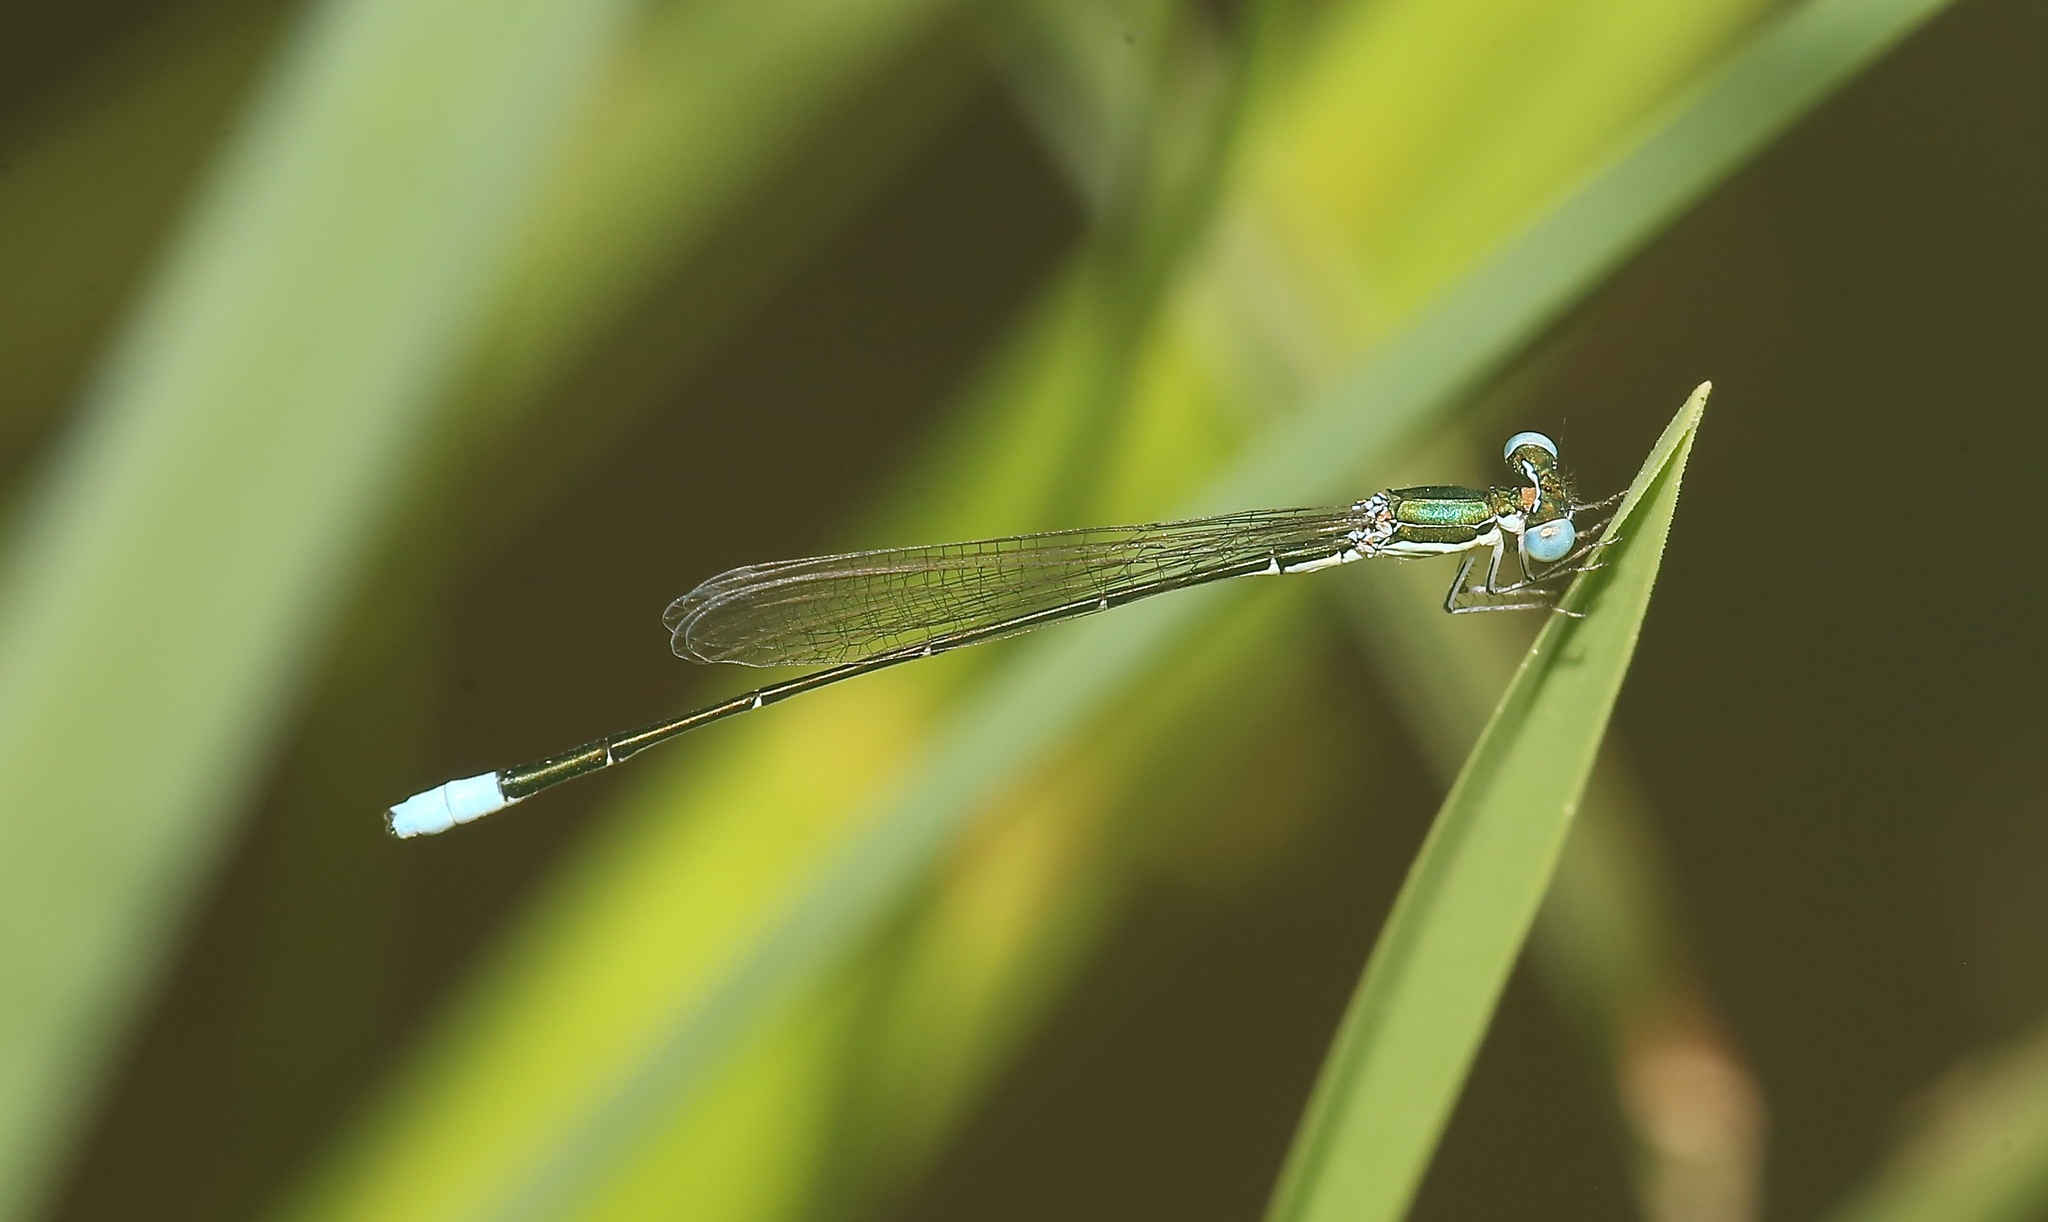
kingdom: Animalia
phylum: Arthropoda
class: Insecta
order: Odonata
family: Coenagrionidae
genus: Nehalennia
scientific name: Nehalennia gracilis
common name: Sphagnum sprite
